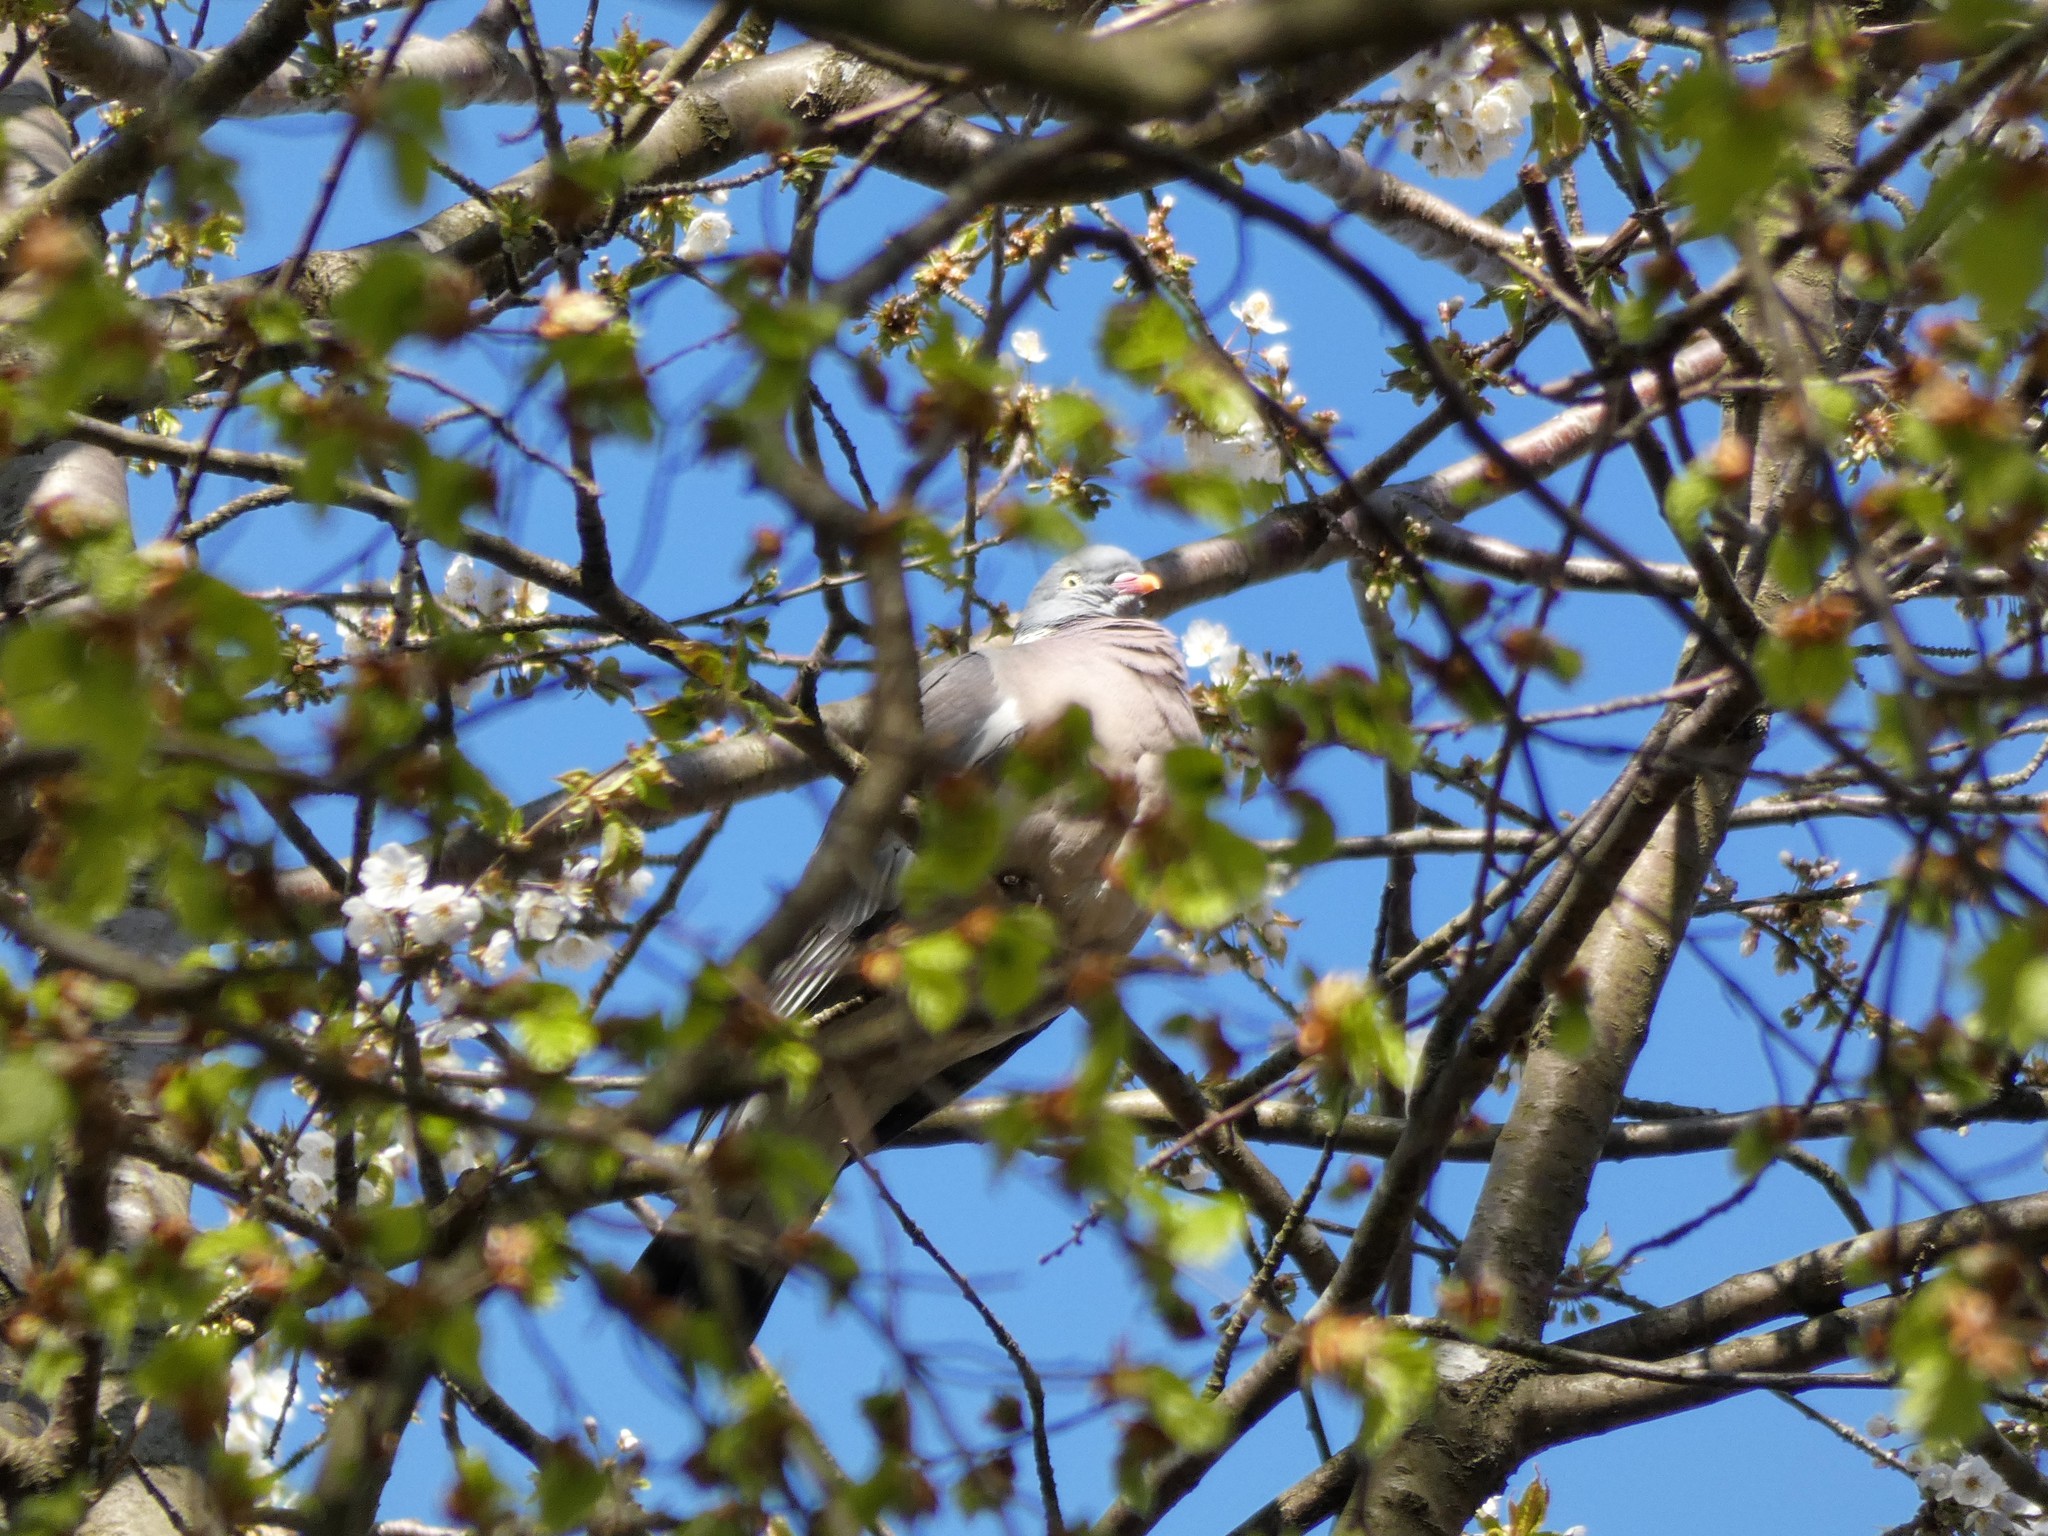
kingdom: Animalia
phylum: Chordata
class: Aves
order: Columbiformes
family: Columbidae
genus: Columba
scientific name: Columba palumbus
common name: Common wood pigeon
